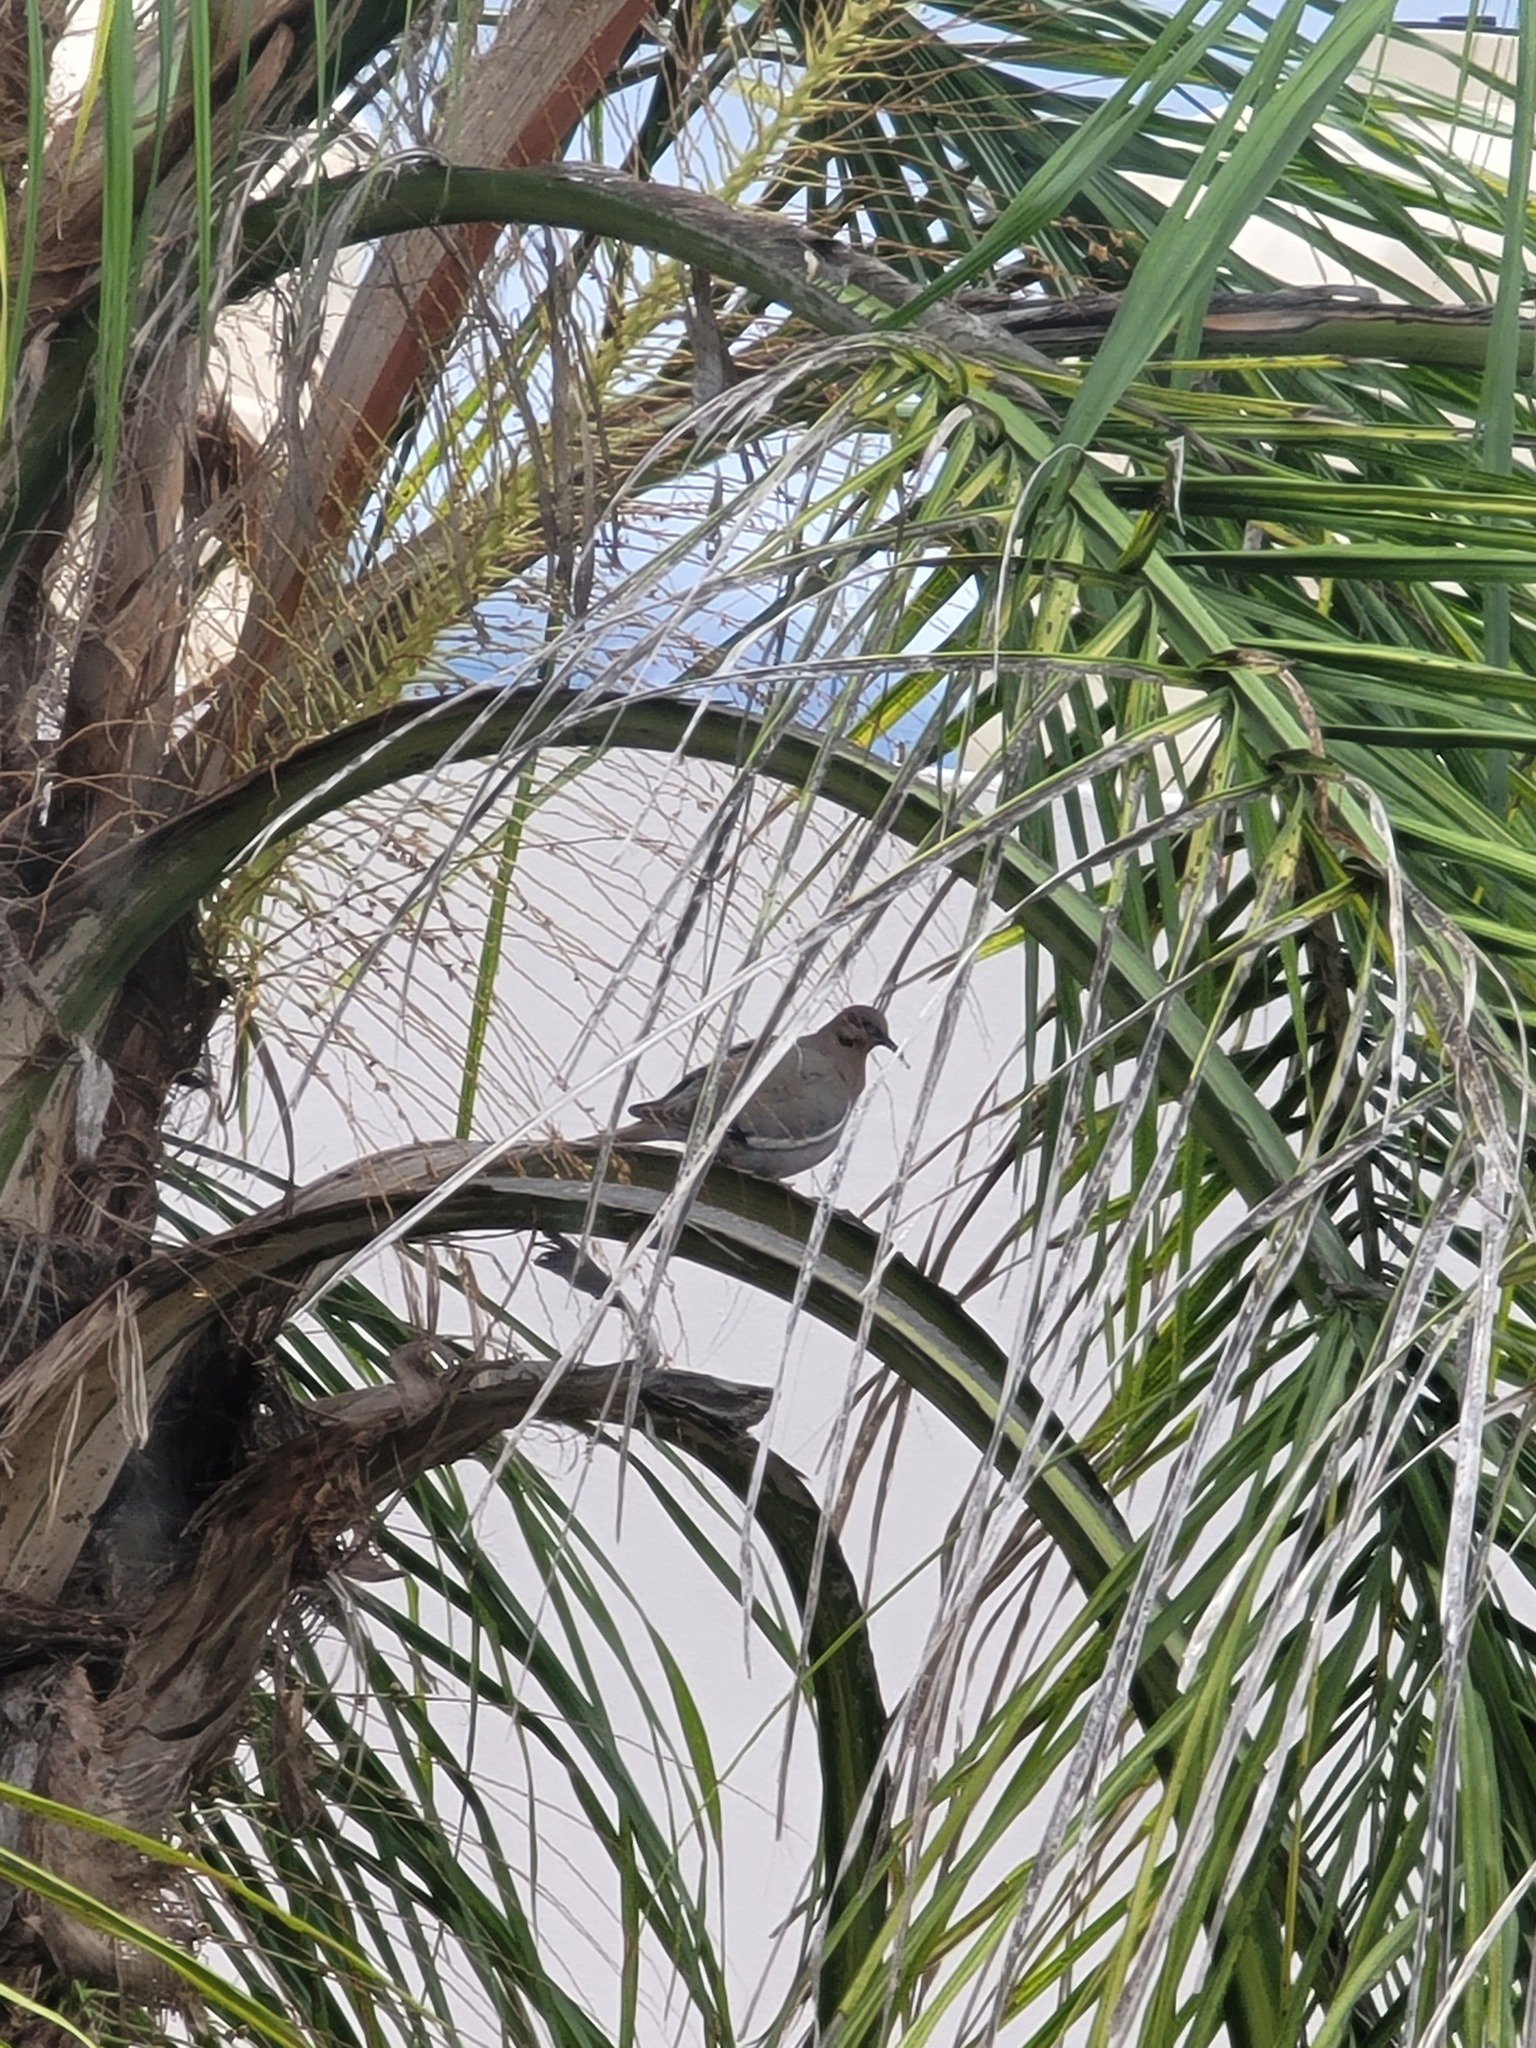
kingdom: Animalia
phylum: Chordata
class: Aves
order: Columbiformes
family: Columbidae
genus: Zenaida
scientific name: Zenaida asiatica
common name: White-winged dove
